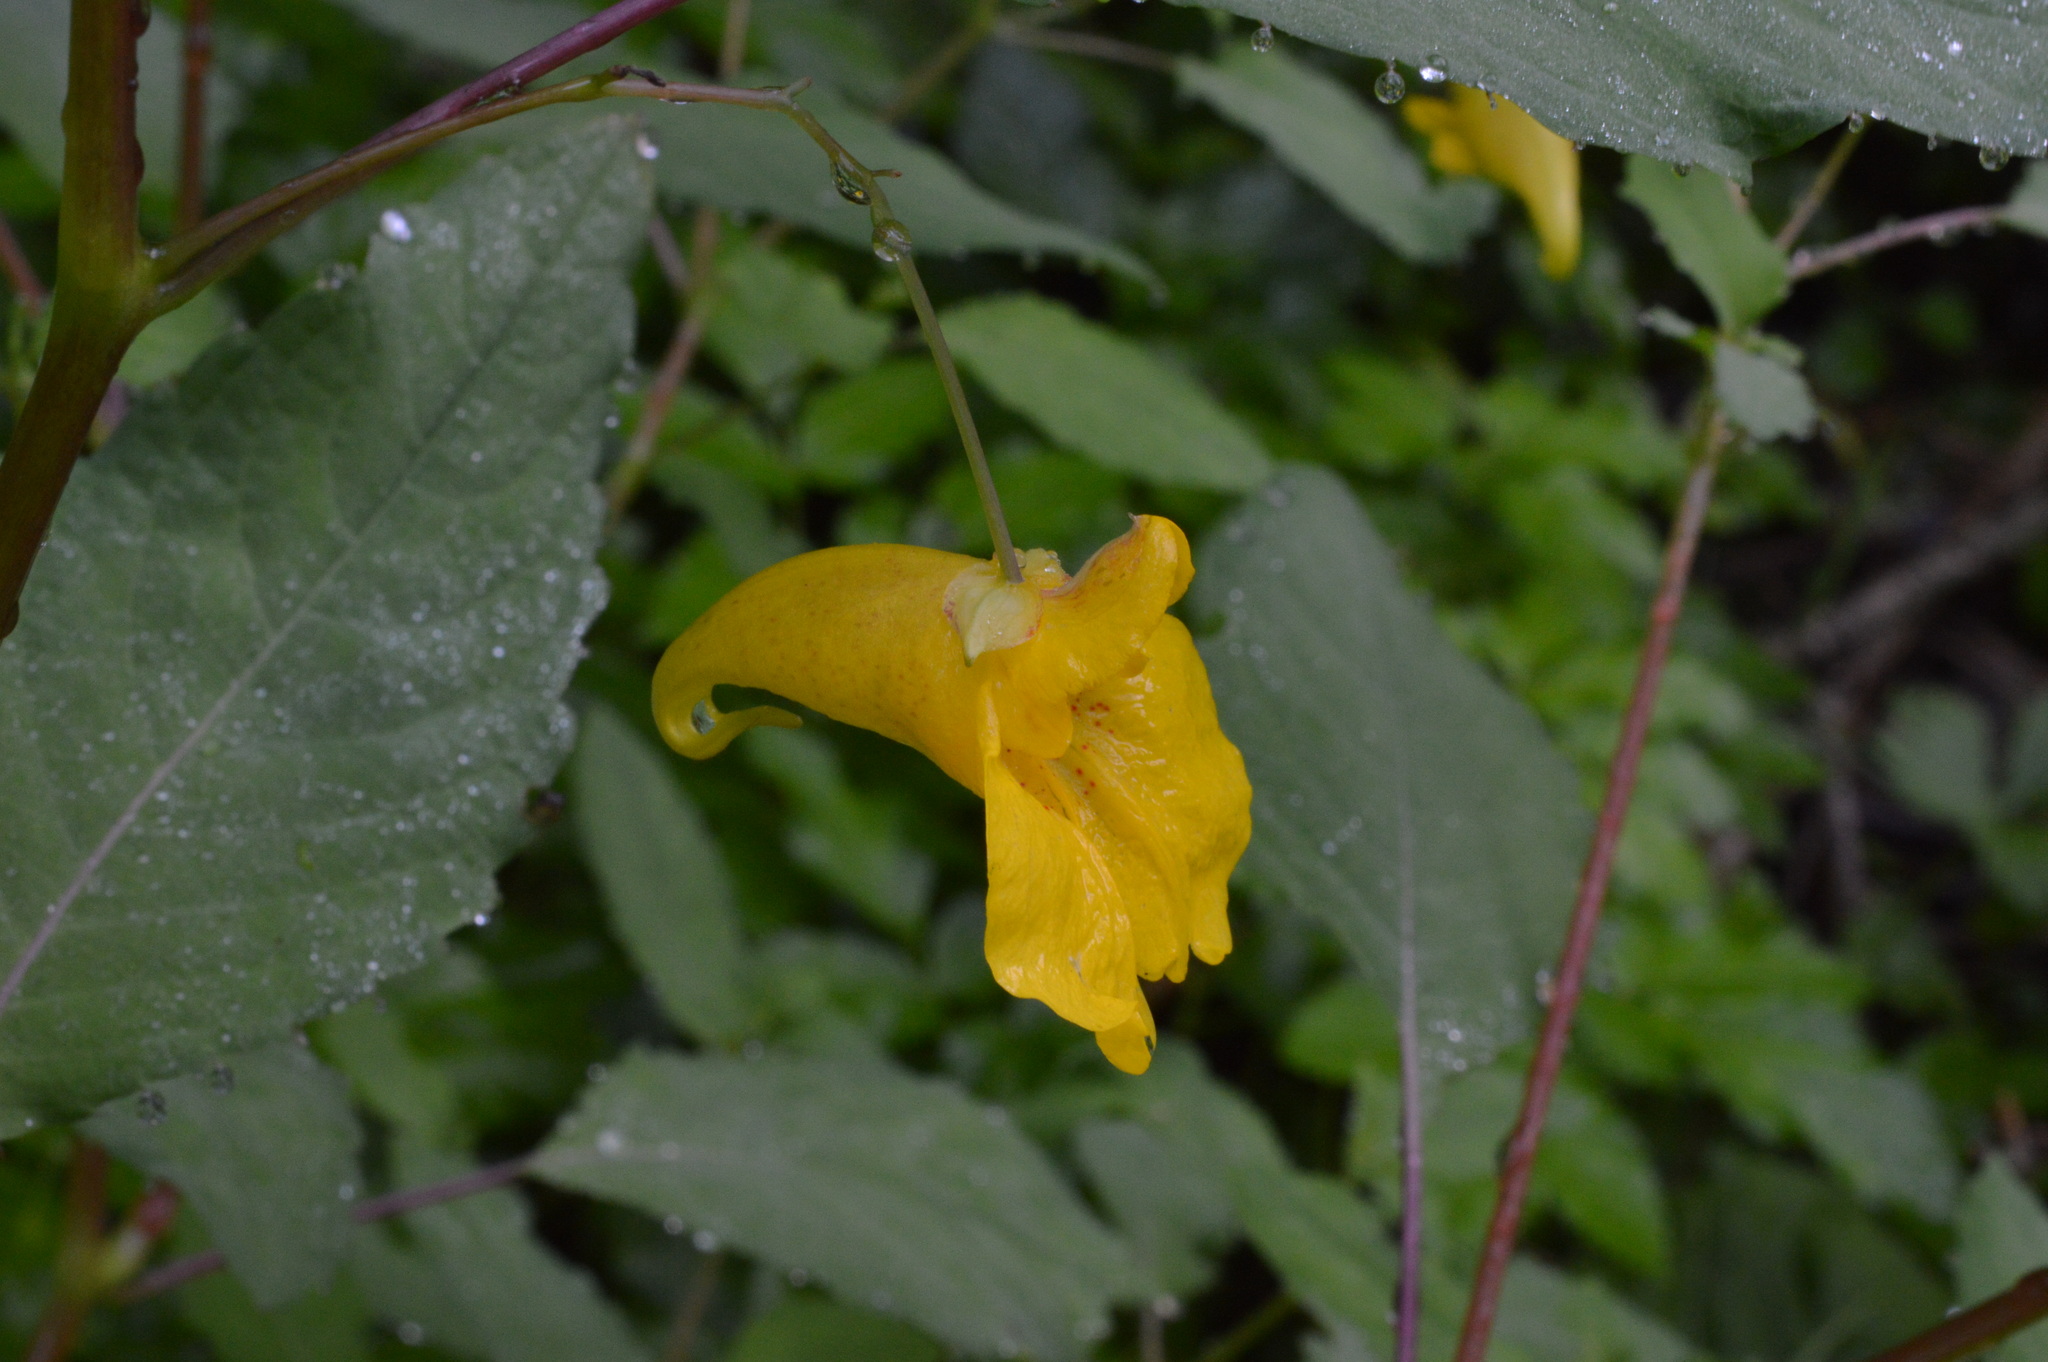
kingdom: Plantae
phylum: Tracheophyta
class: Magnoliopsida
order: Ericales
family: Balsaminaceae
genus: Impatiens
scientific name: Impatiens noli-tangere
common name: Touch-me-not balsam
